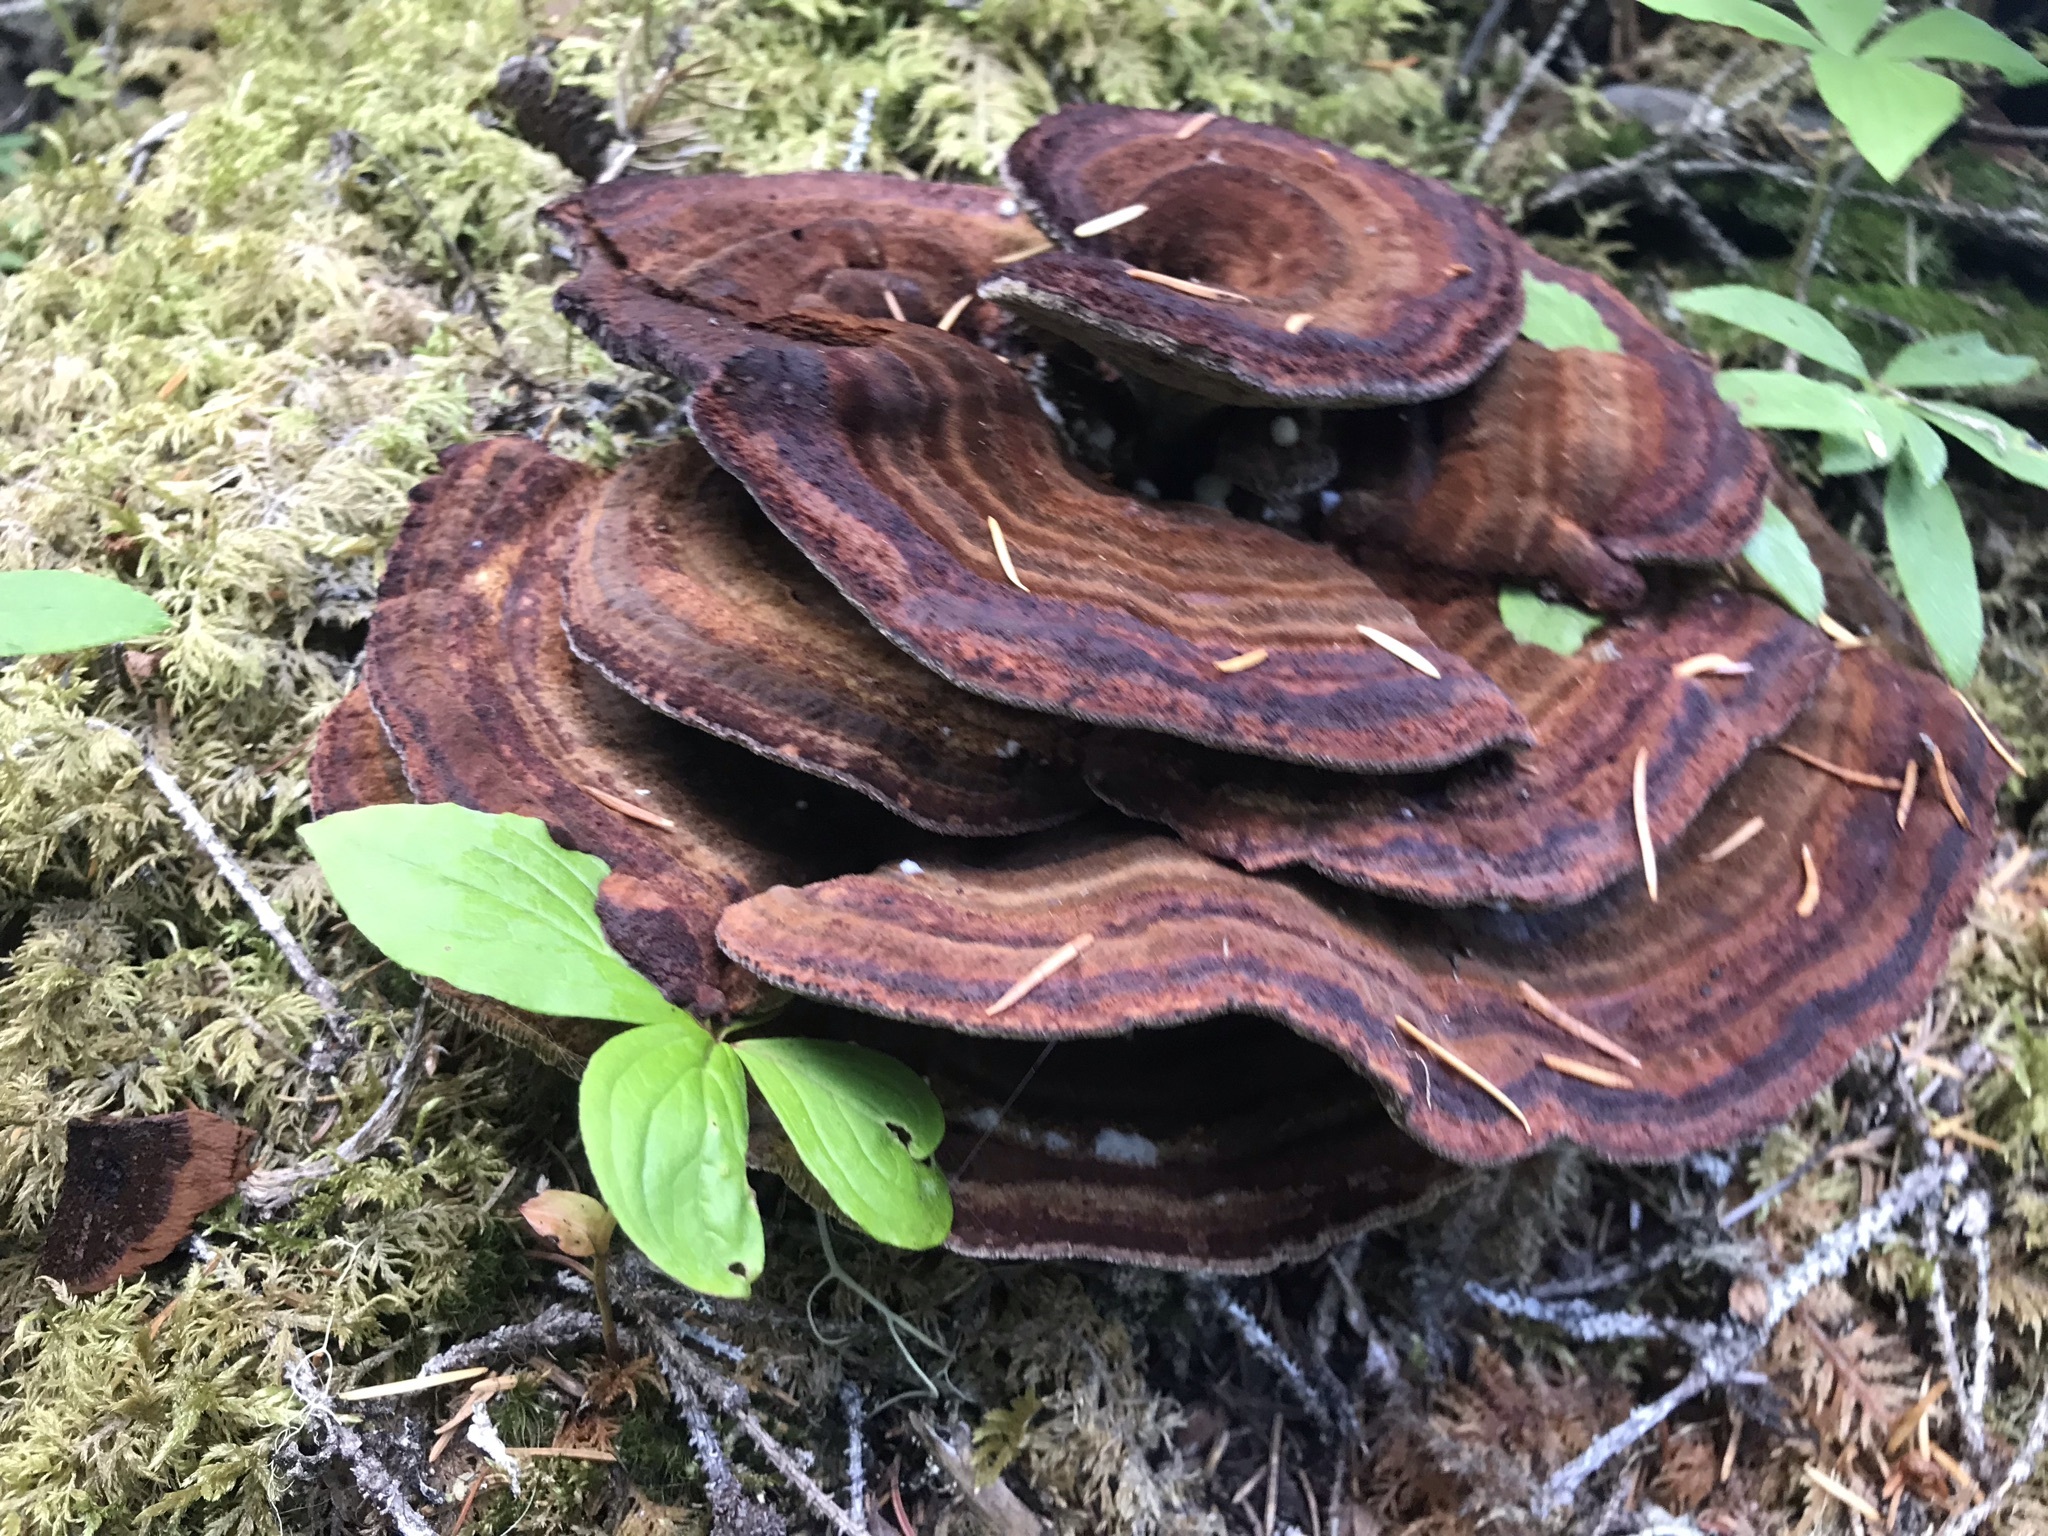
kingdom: Fungi
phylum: Basidiomycota
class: Agaricomycetes
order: Polyporales
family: Laetiporaceae
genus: Phaeolus
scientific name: Phaeolus schweinitzii
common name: Dyer's mazegill
